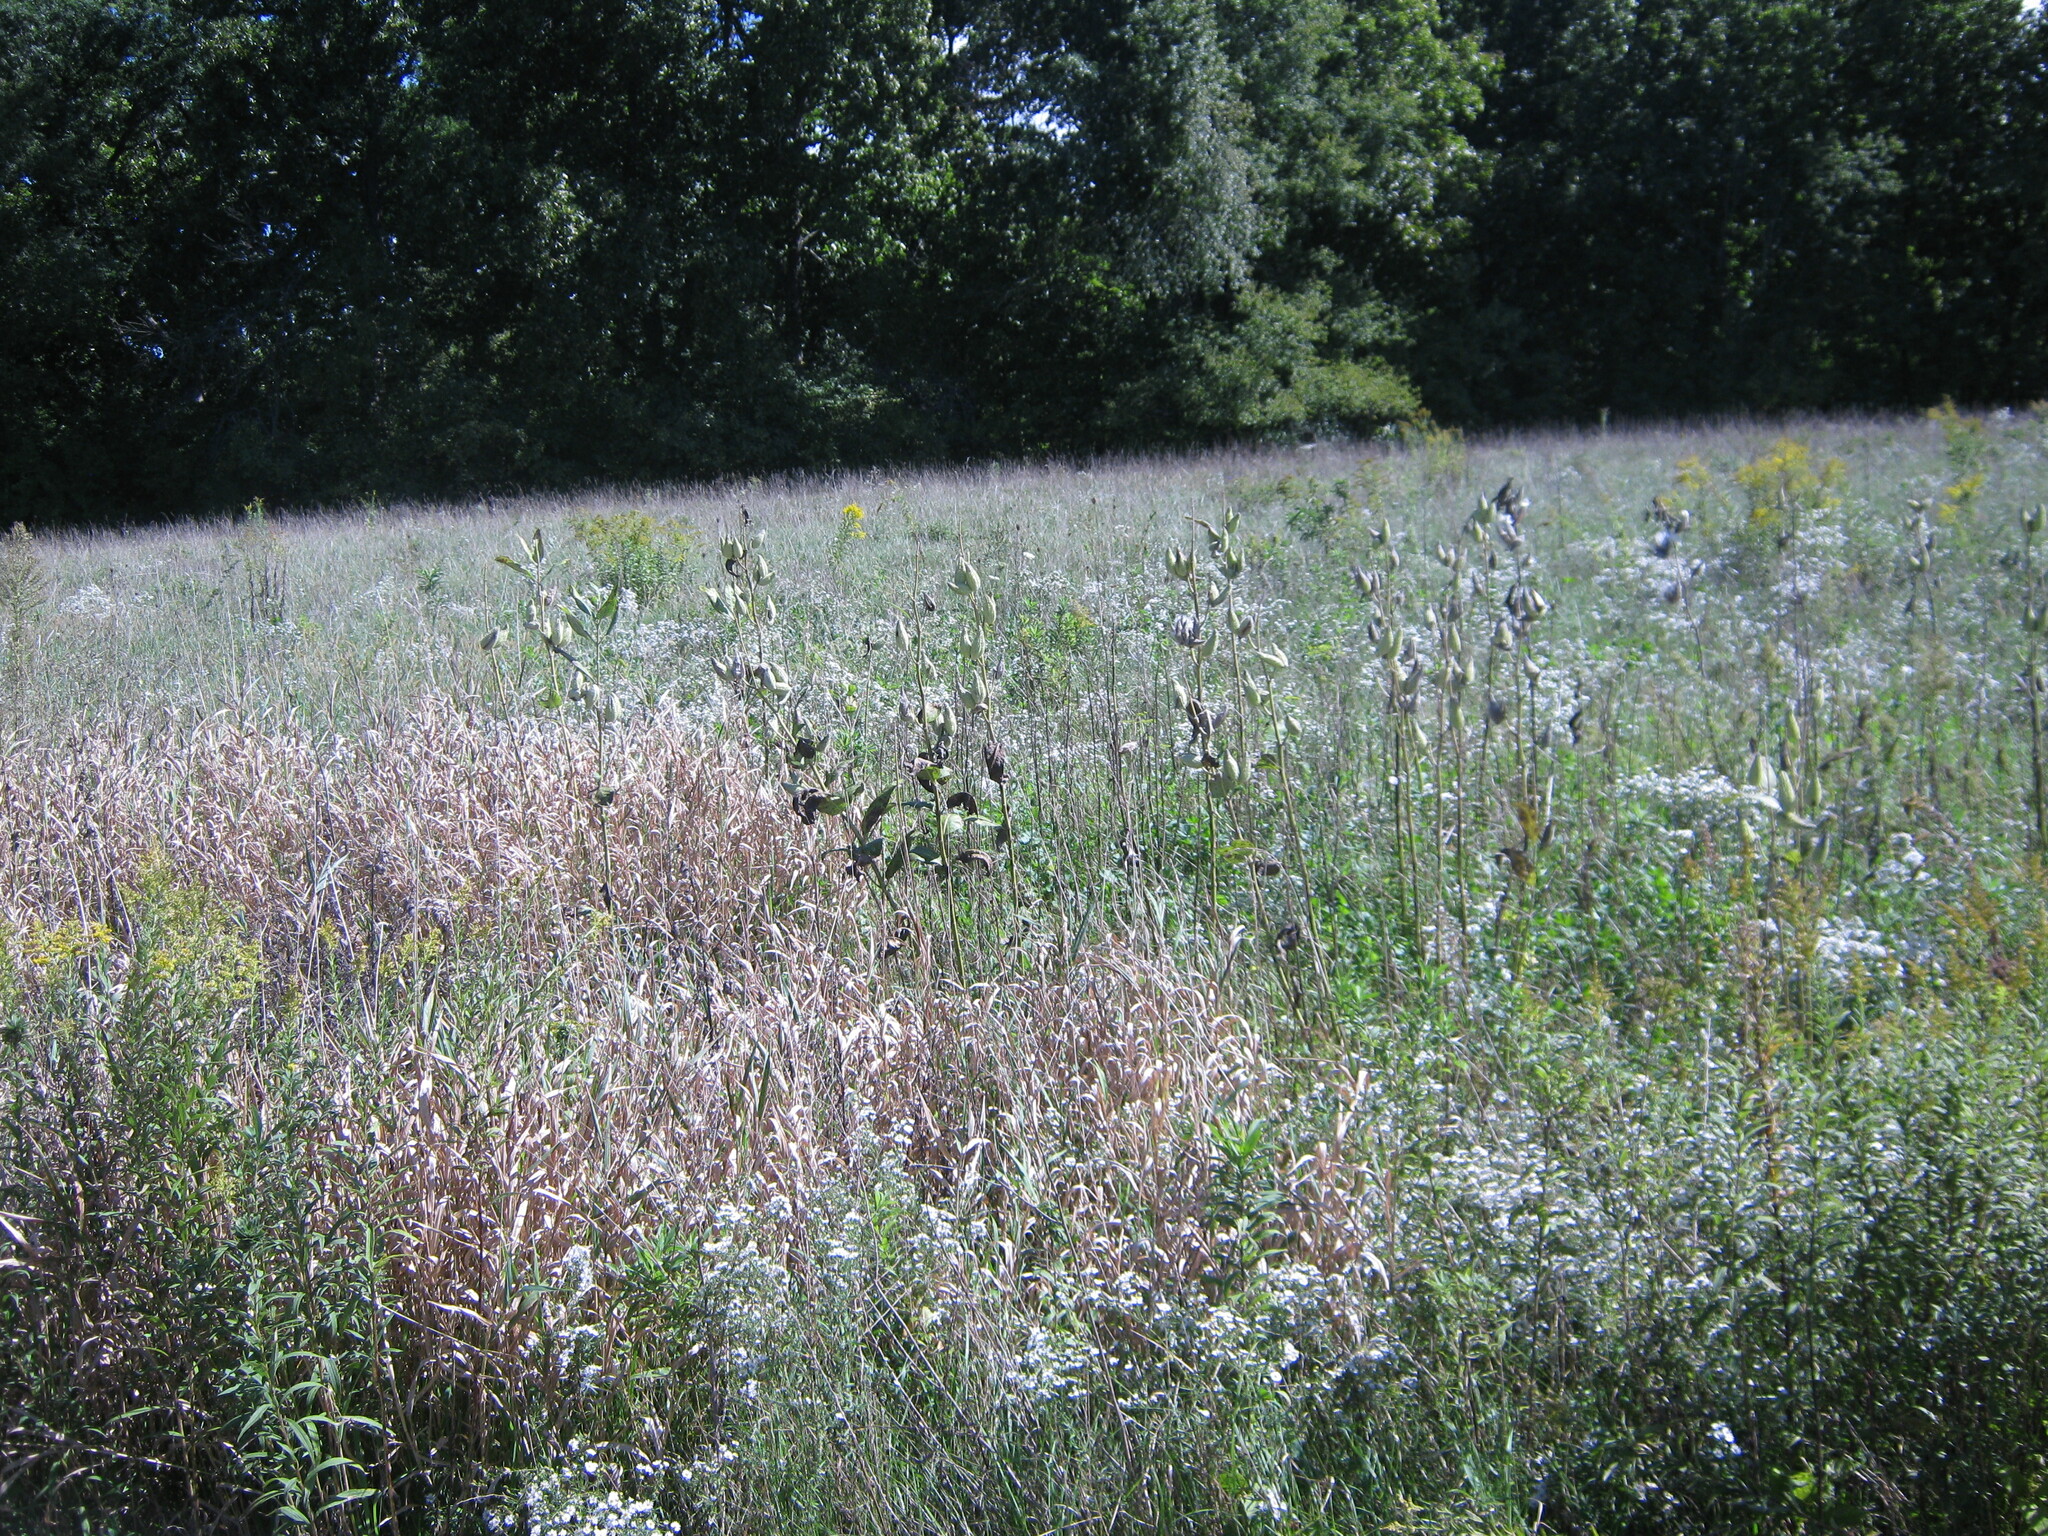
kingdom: Plantae
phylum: Tracheophyta
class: Magnoliopsida
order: Gentianales
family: Apocynaceae
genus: Asclepias
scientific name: Asclepias syriaca
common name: Common milkweed
